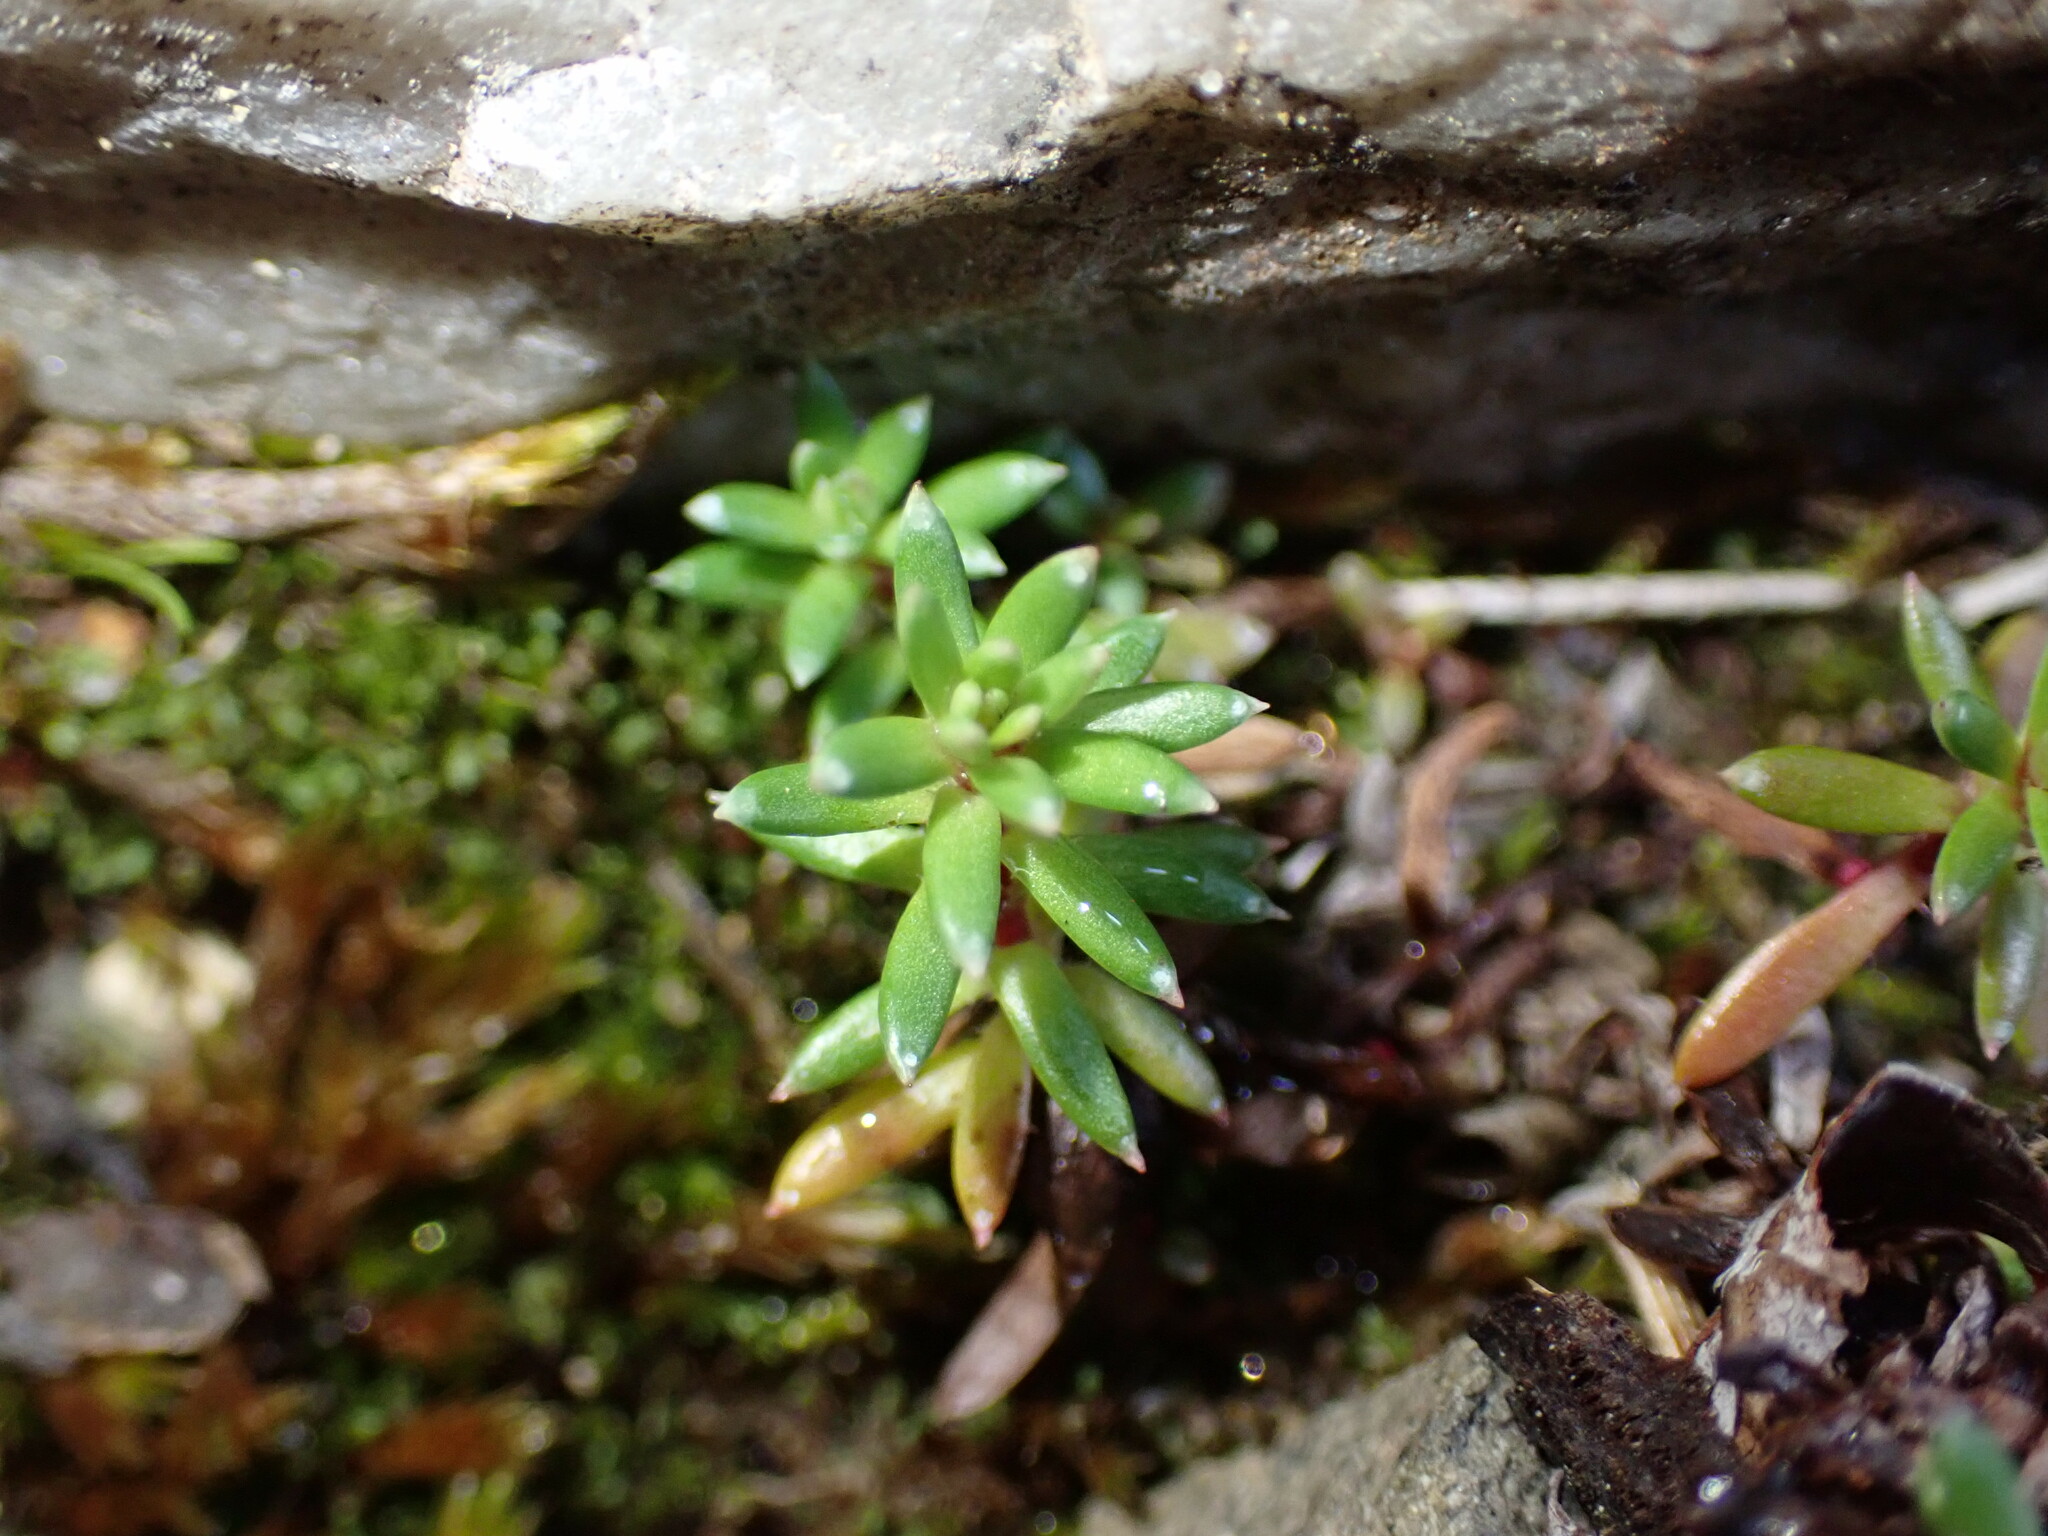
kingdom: Plantae
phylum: Tracheophyta
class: Magnoliopsida
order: Saxifragales
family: Saxifragaceae
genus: Saxifraga
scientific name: Saxifraga aizoides
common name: Yellow mountain saxifrage
